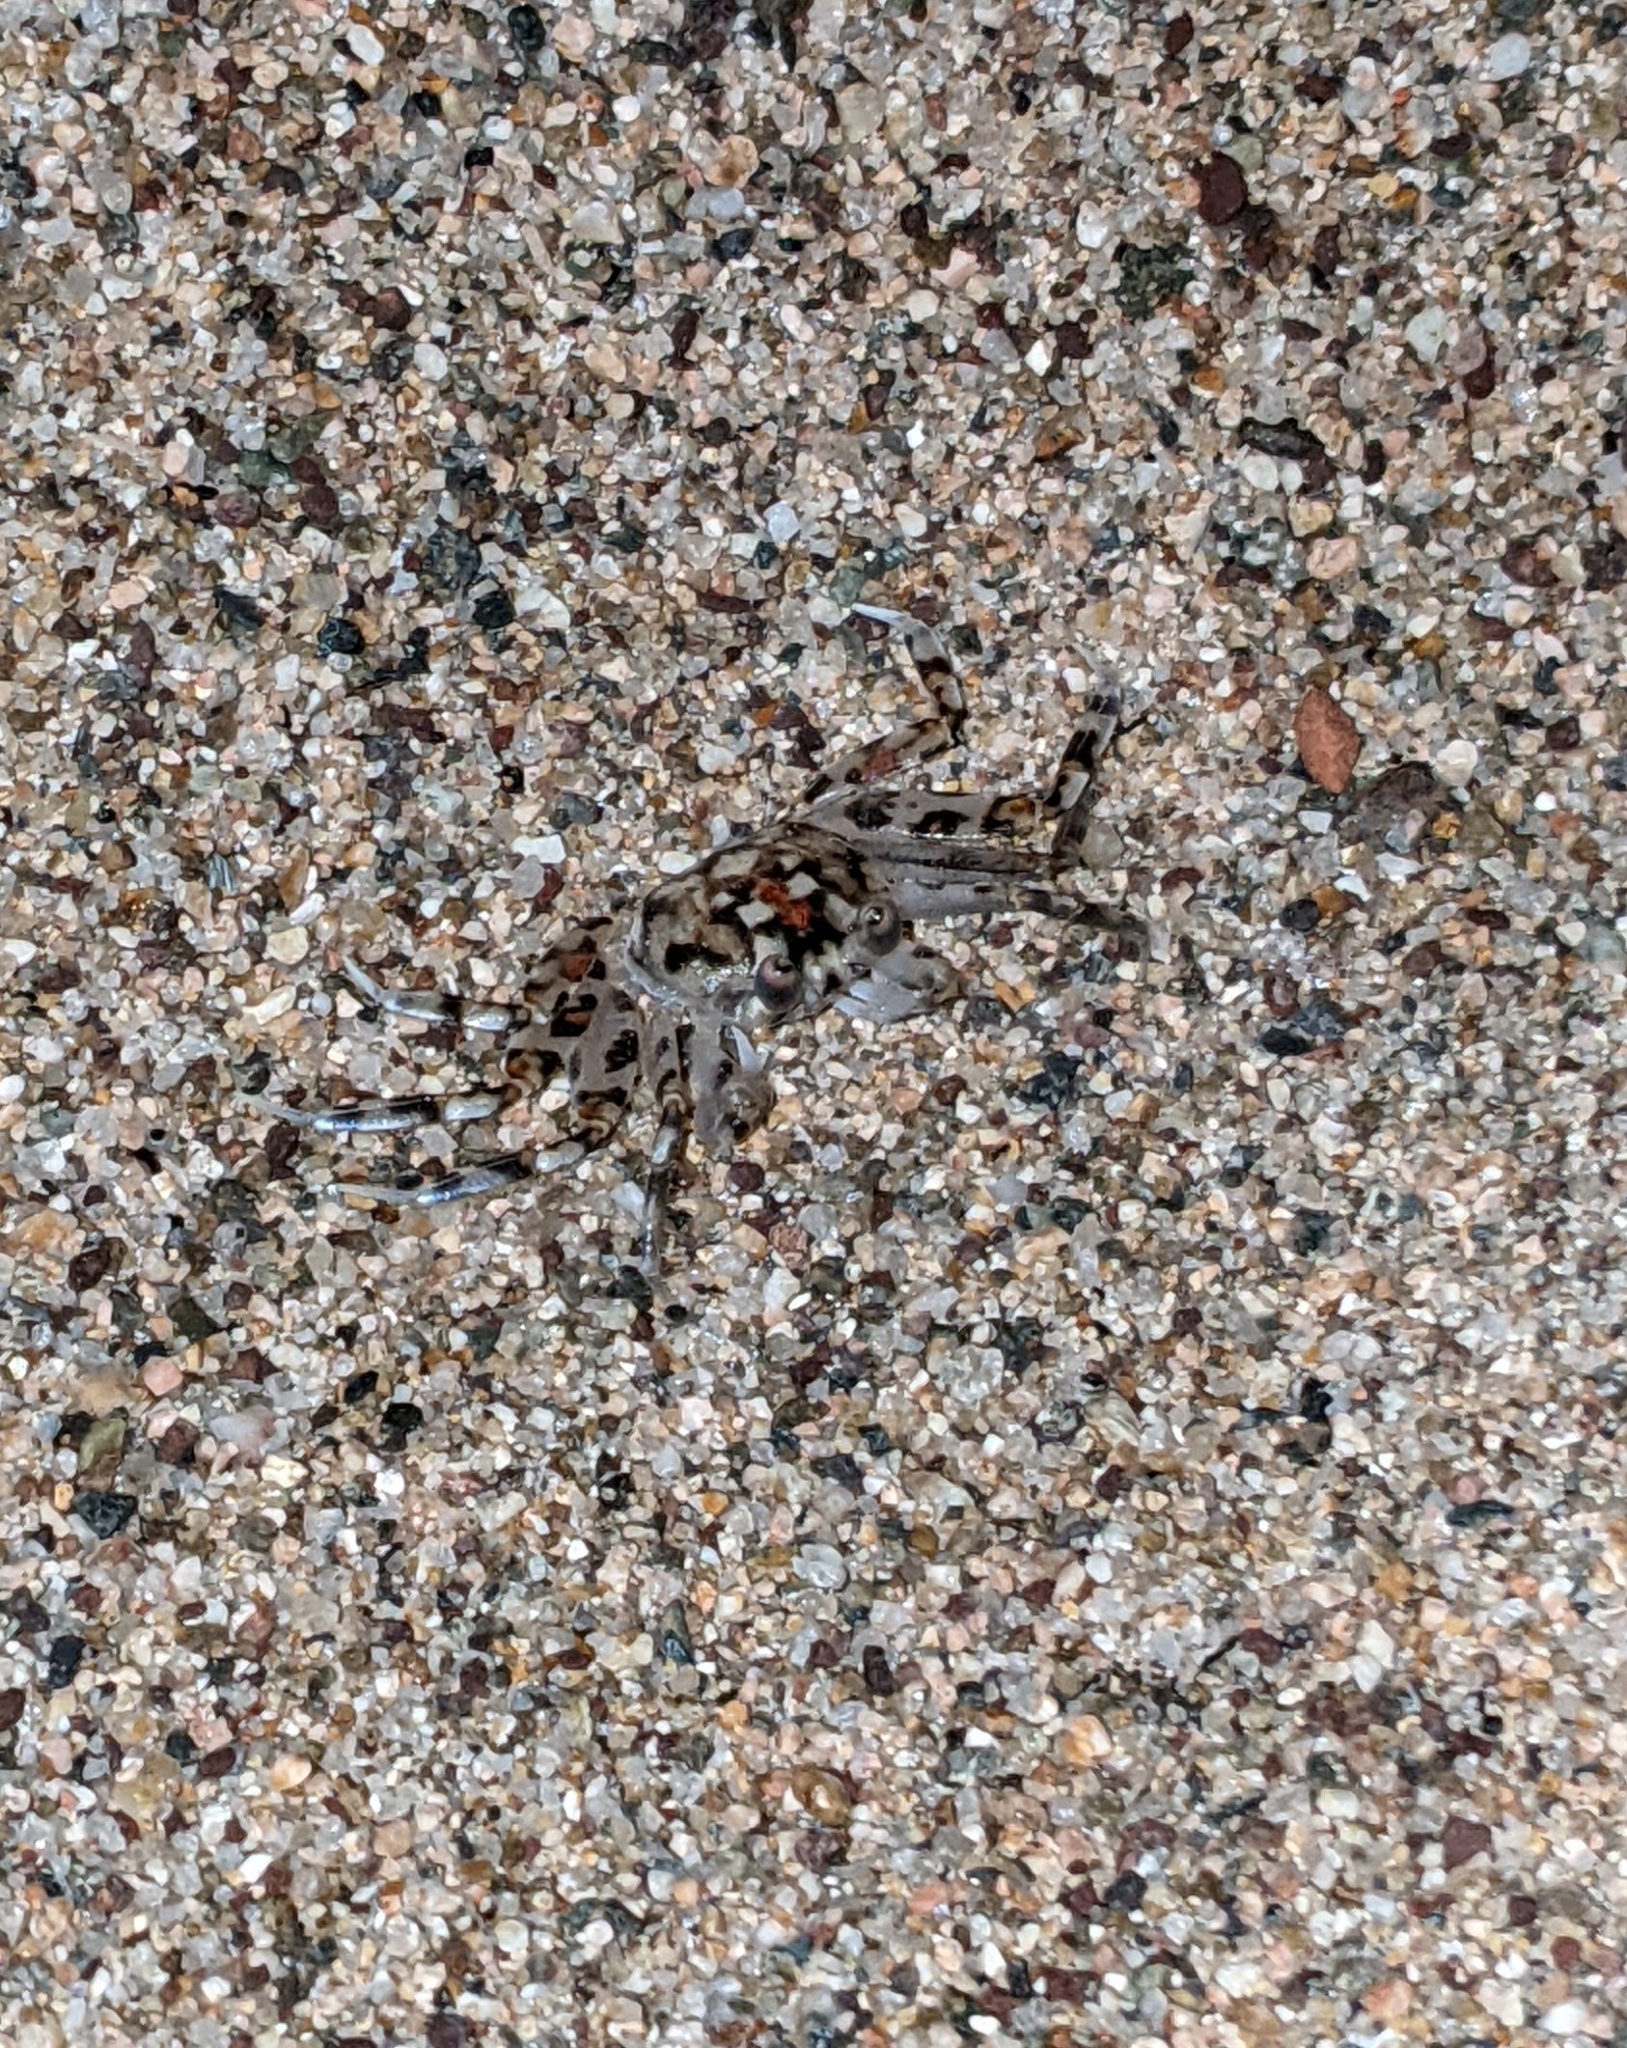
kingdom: Animalia
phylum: Arthropoda
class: Malacostraca
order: Decapoda
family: Ocypodidae
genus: Ocypode
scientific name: Ocypode occidentalis
